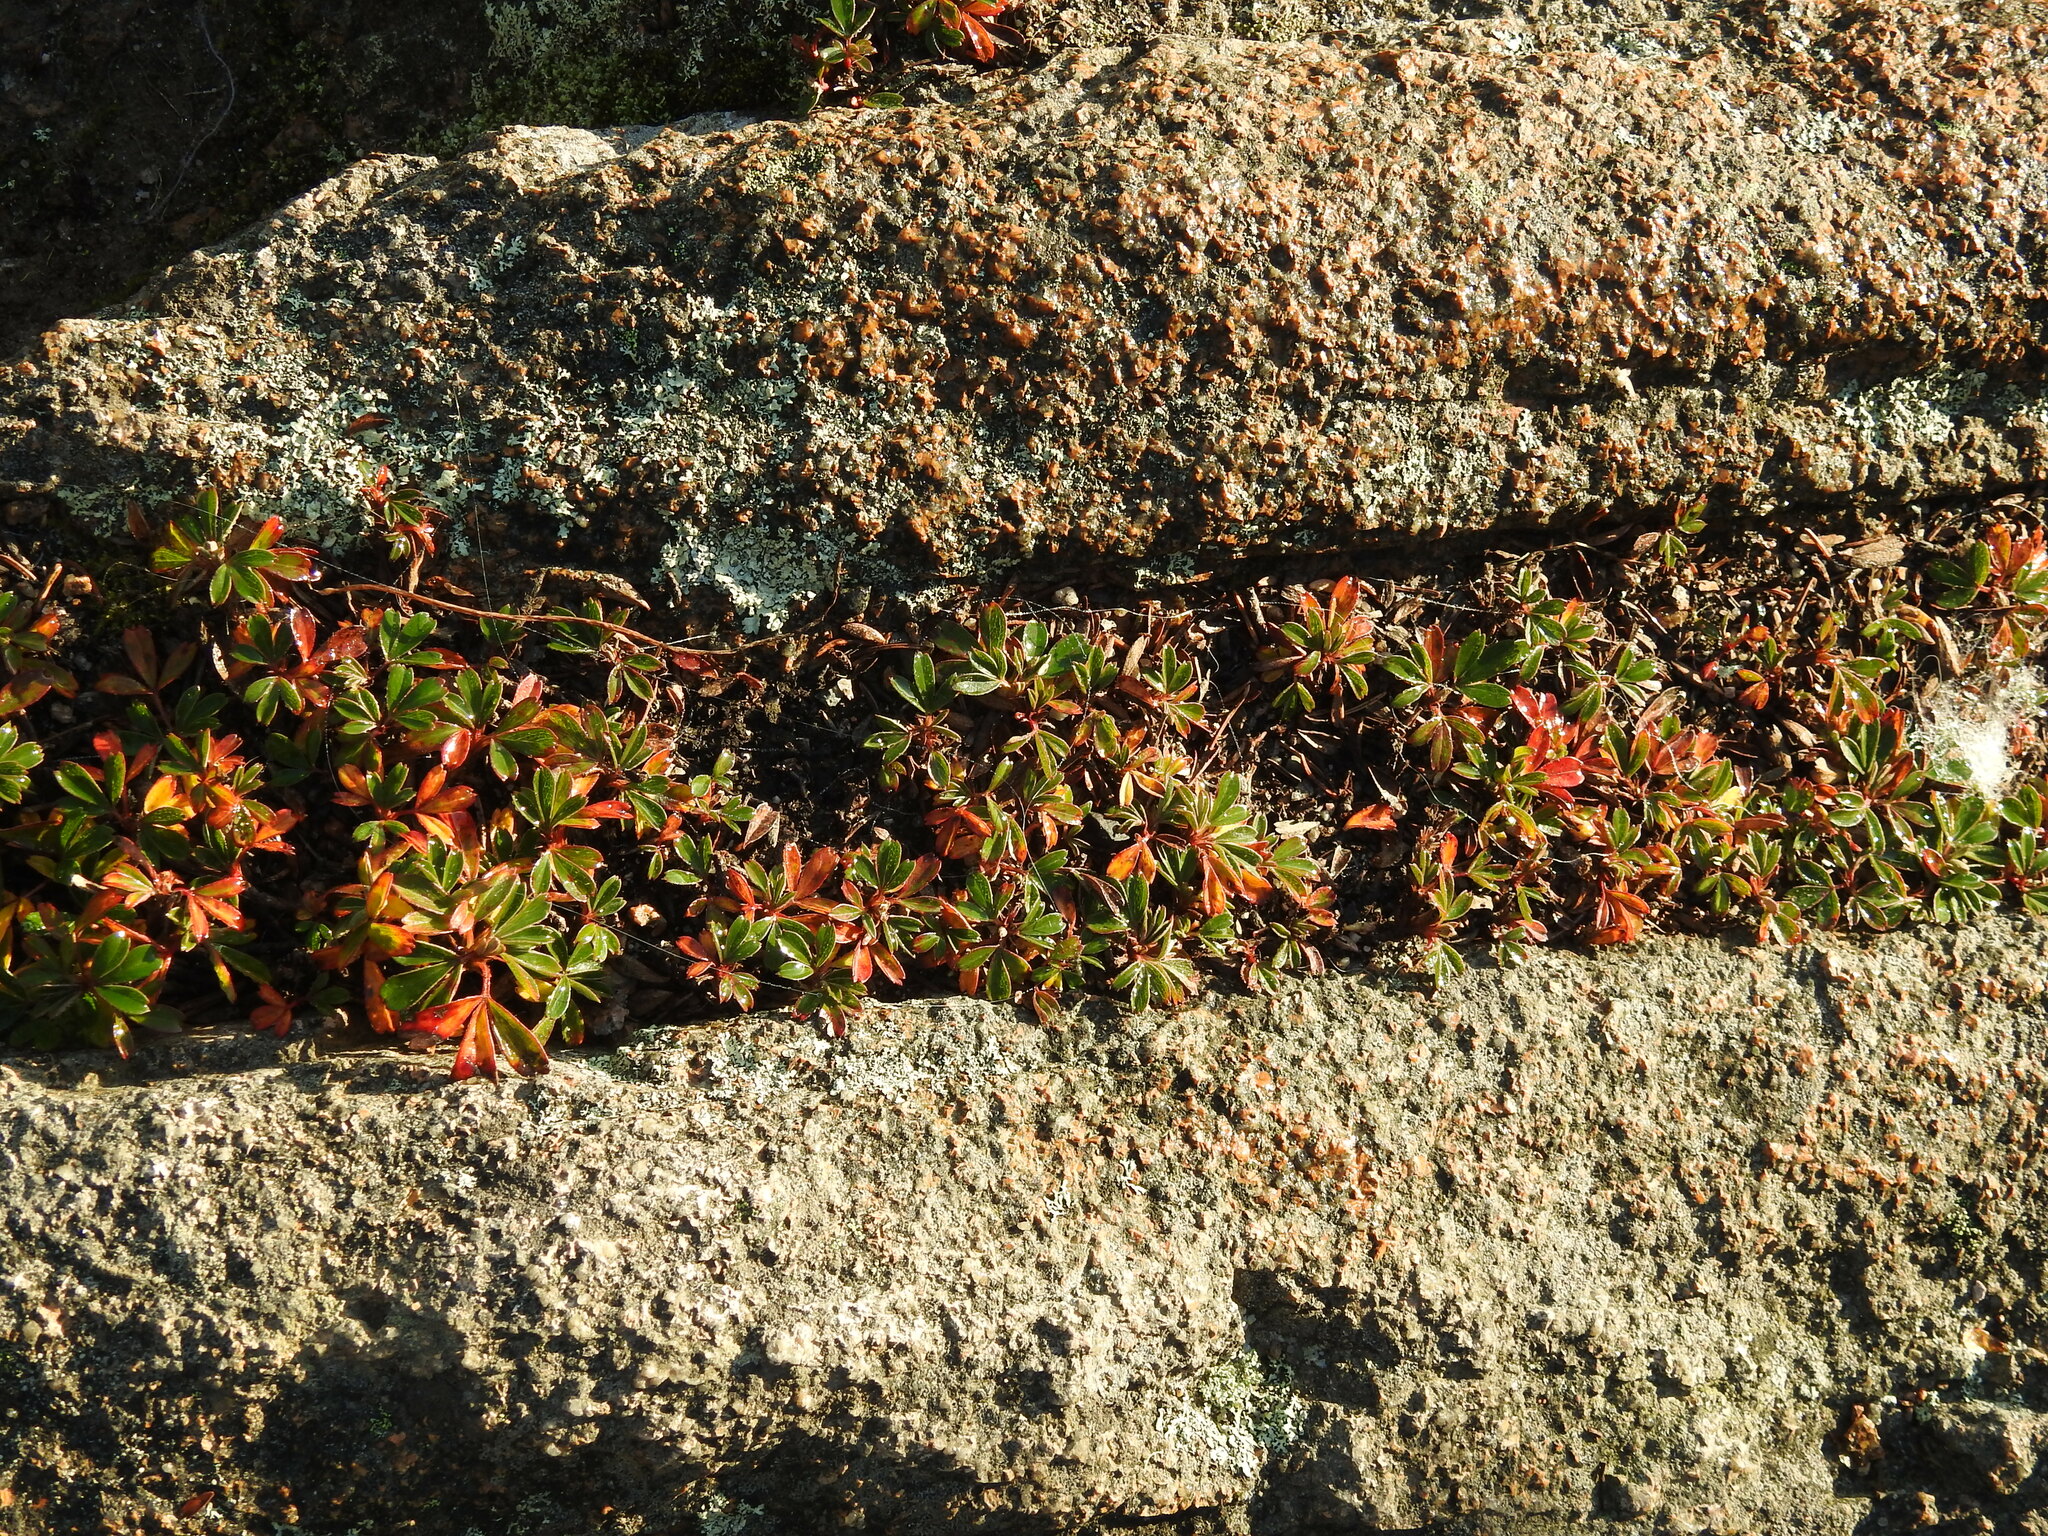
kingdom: Plantae
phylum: Tracheophyta
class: Magnoliopsida
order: Rosales
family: Rosaceae
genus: Sibbaldia
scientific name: Sibbaldia tridentata
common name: Three-toothed cinquefoil
